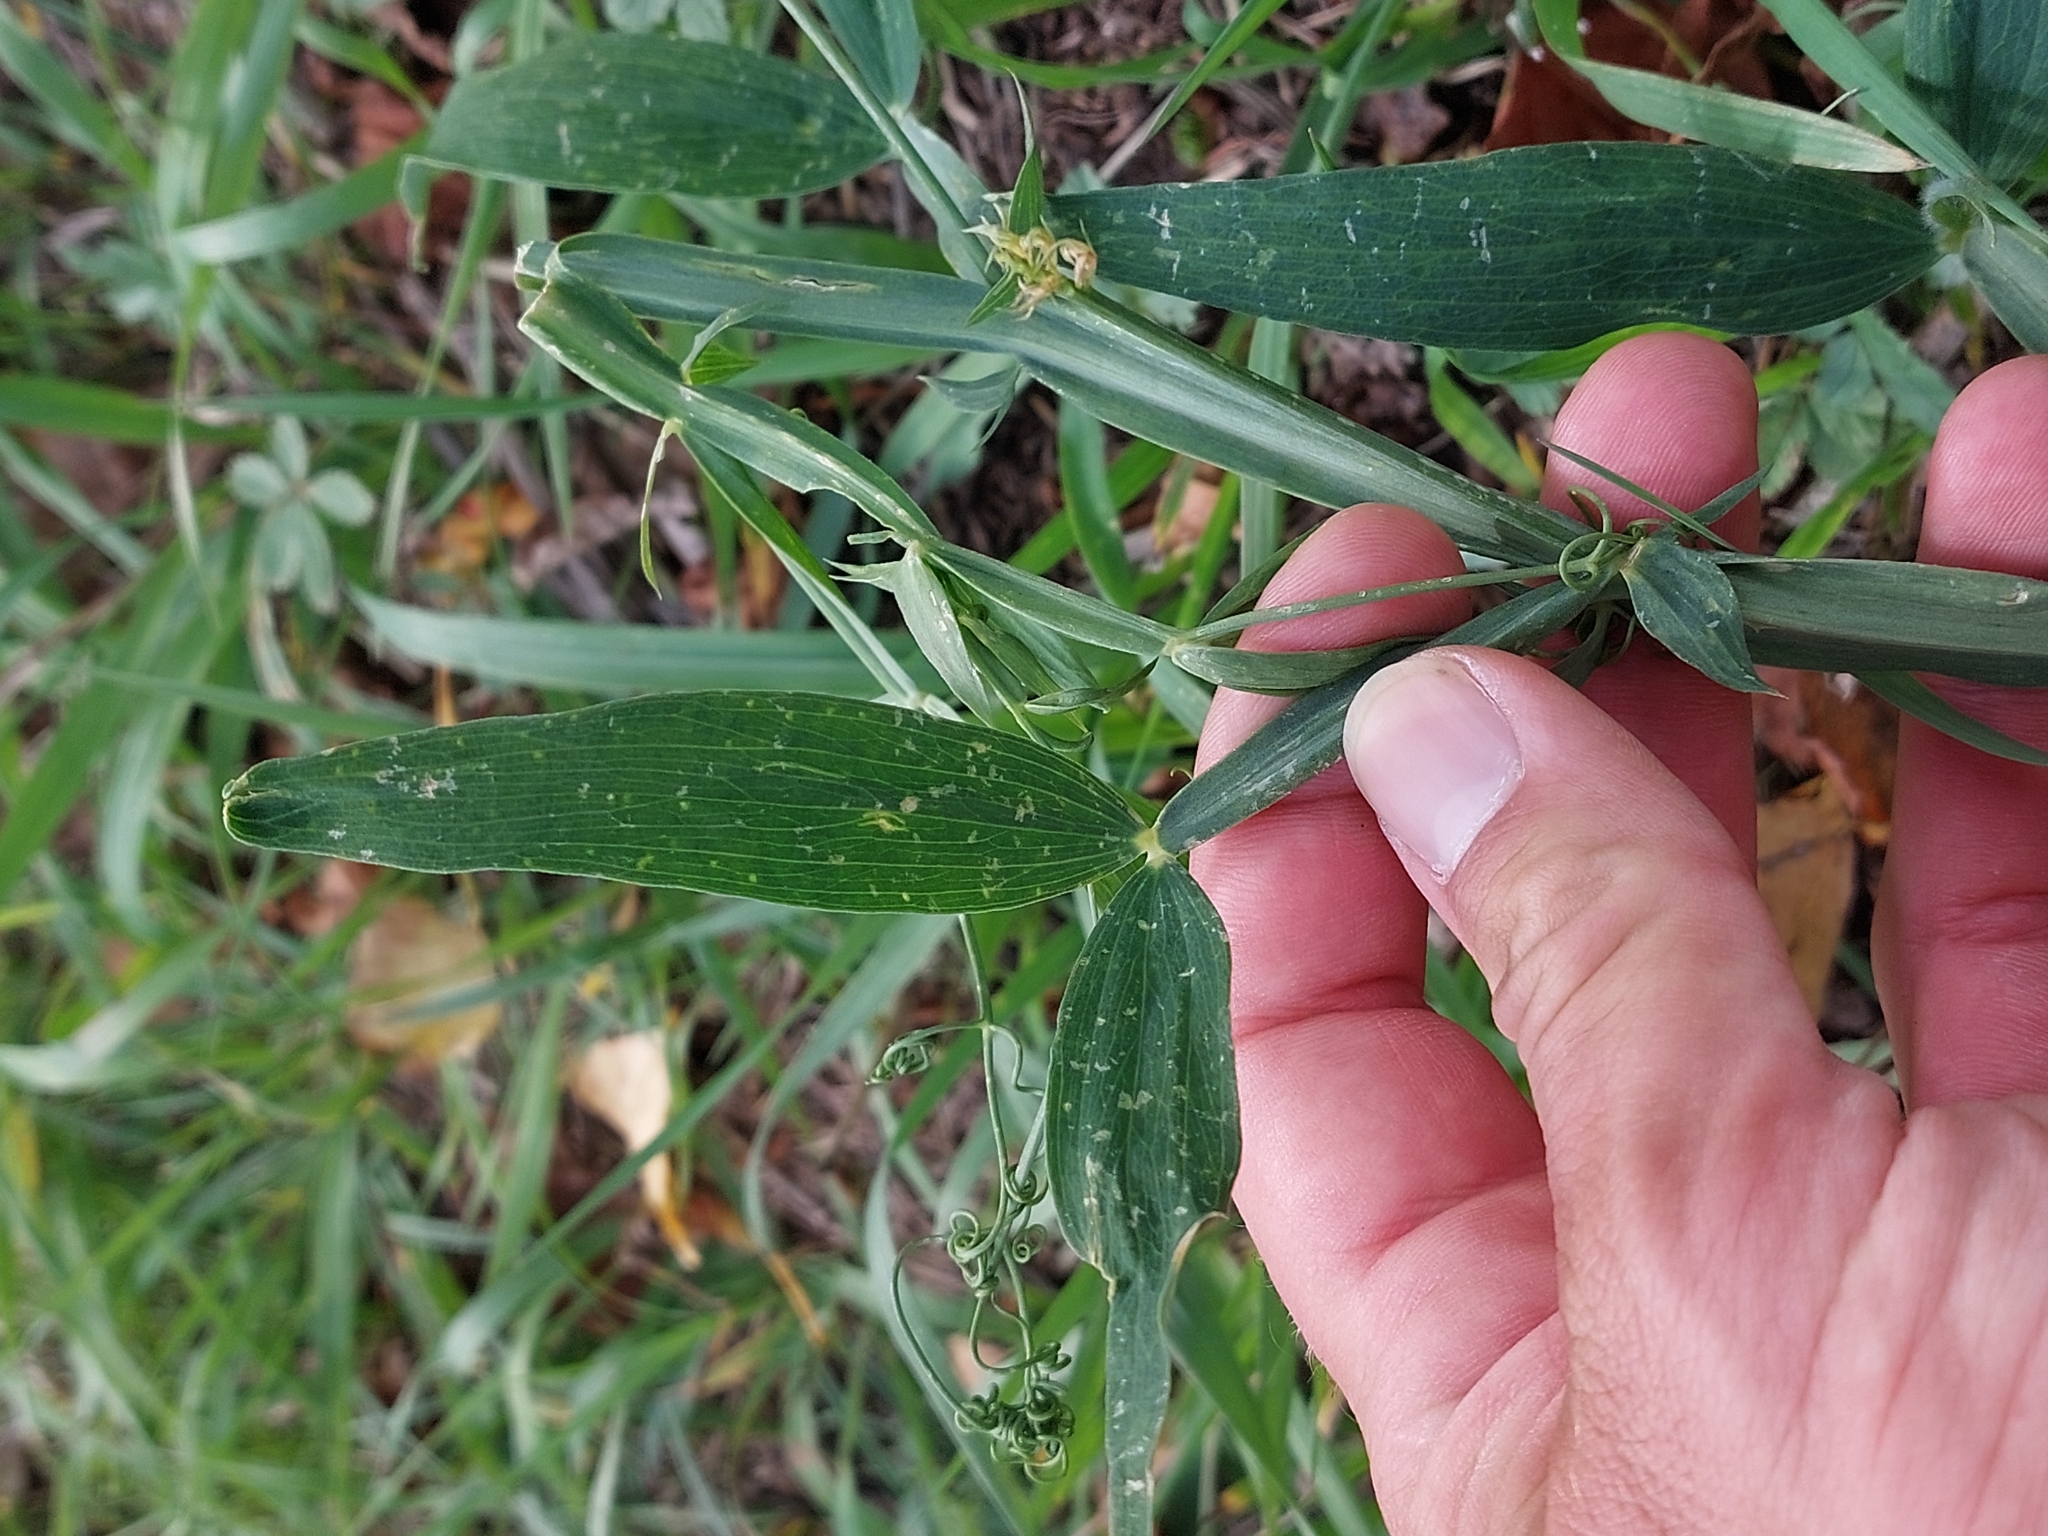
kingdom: Plantae
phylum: Tracheophyta
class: Magnoliopsida
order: Fabales
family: Fabaceae
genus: Lathyrus
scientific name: Lathyrus latifolius
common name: Perennial pea
